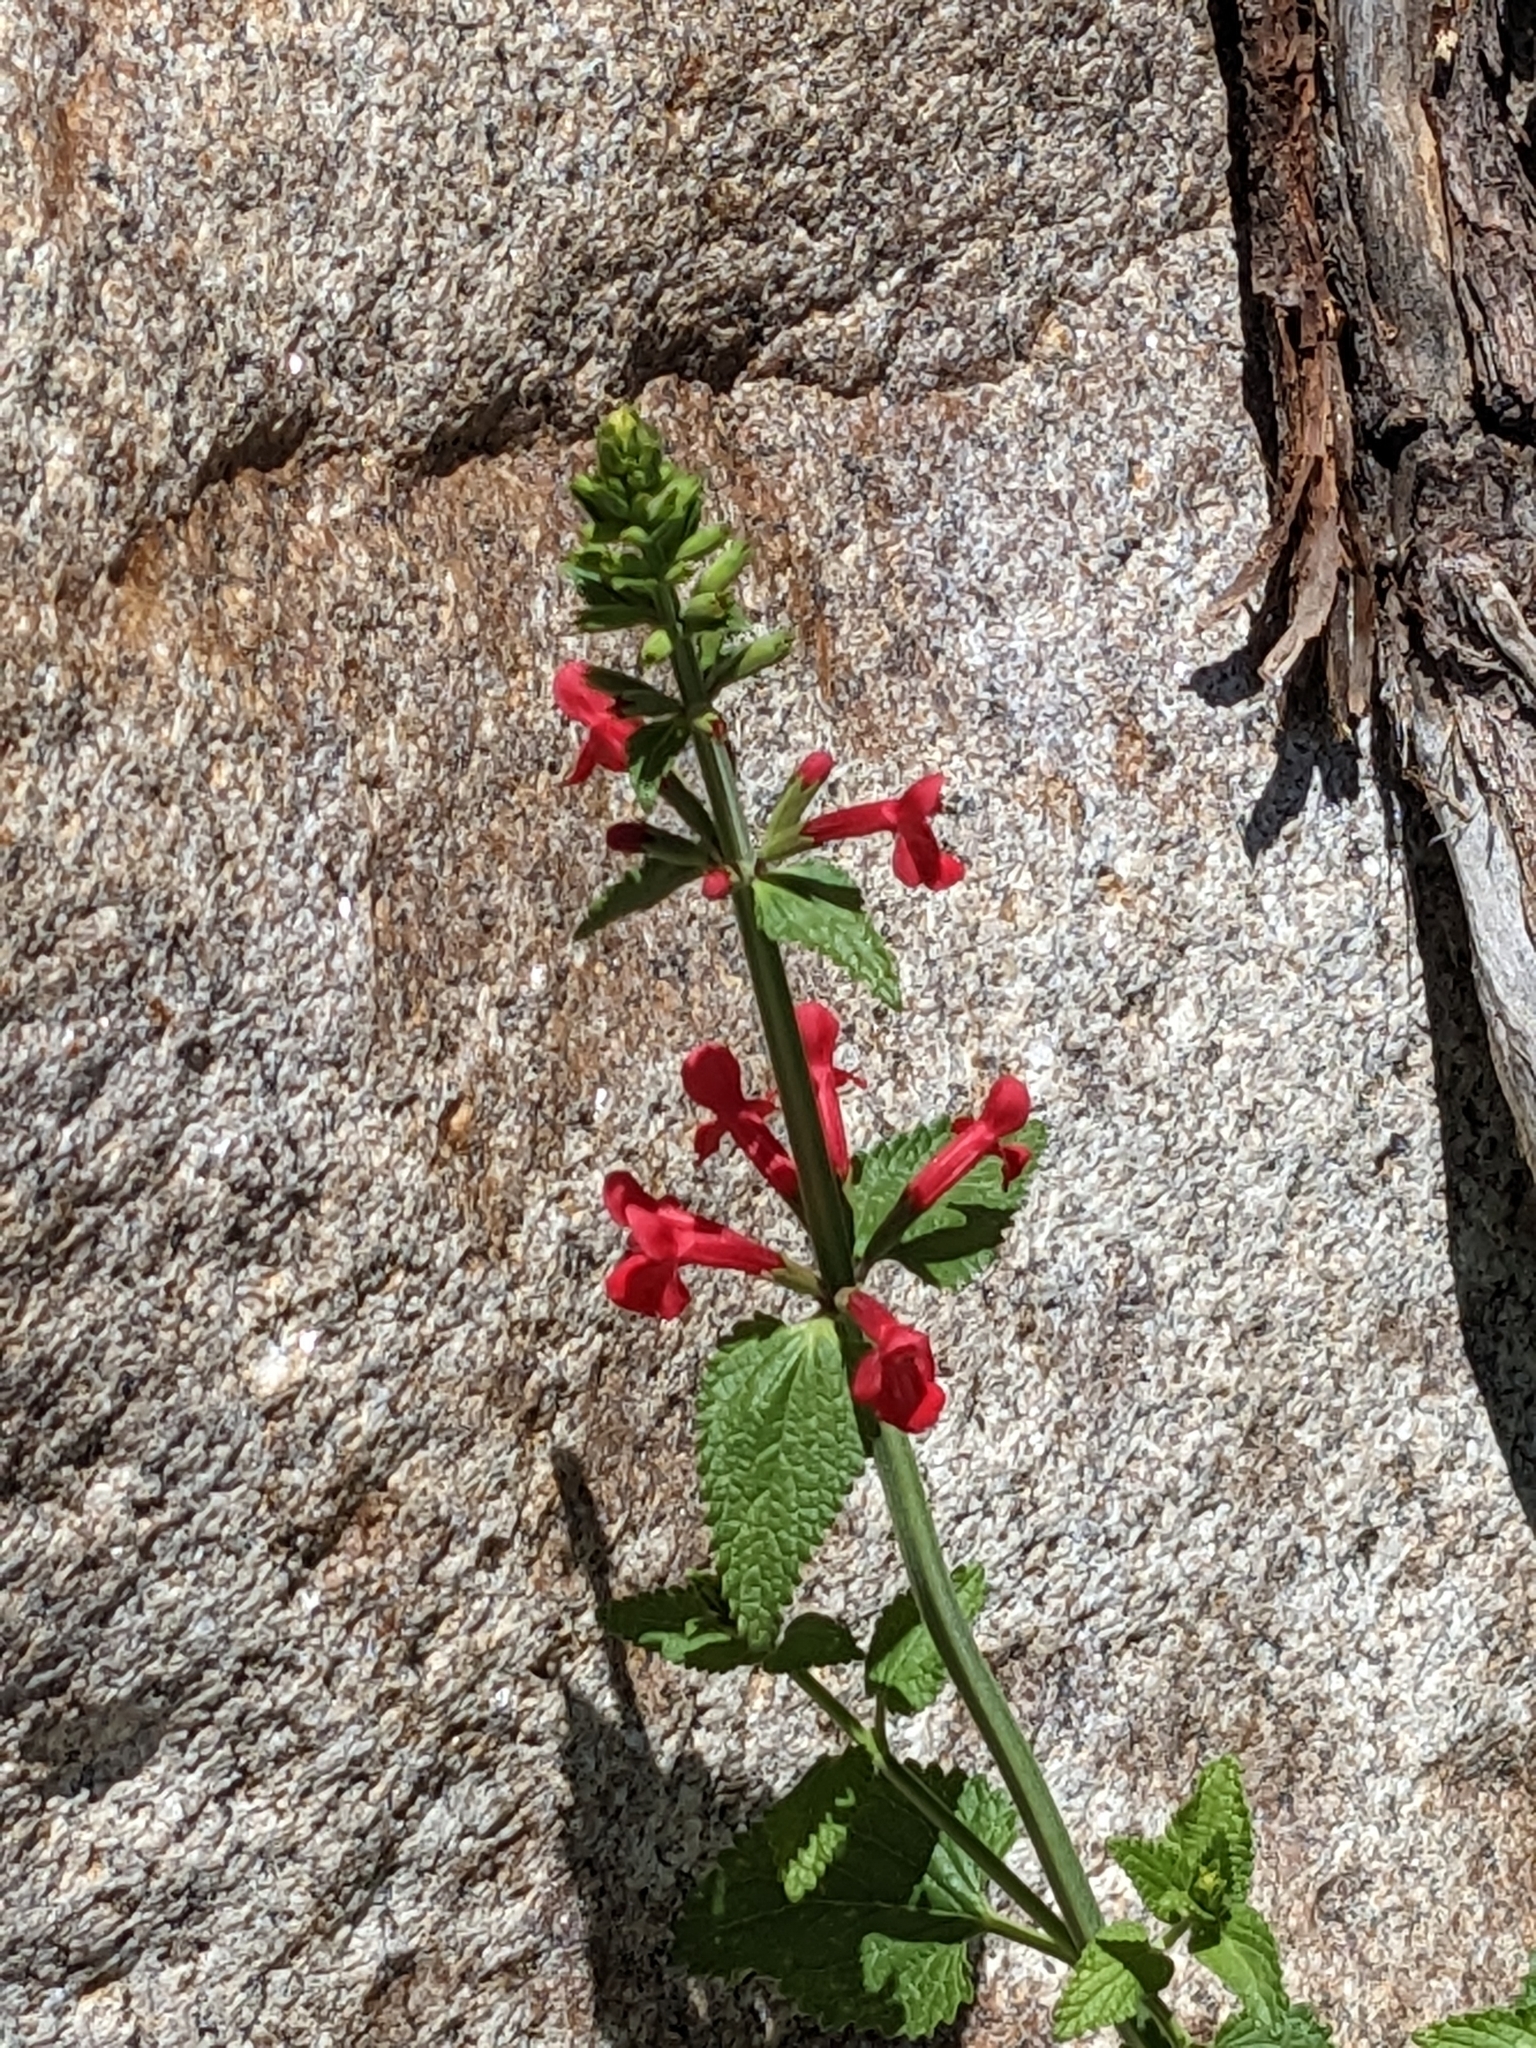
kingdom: Plantae
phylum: Tracheophyta
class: Magnoliopsida
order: Lamiales
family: Lamiaceae
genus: Stachys
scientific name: Stachys coccinea
